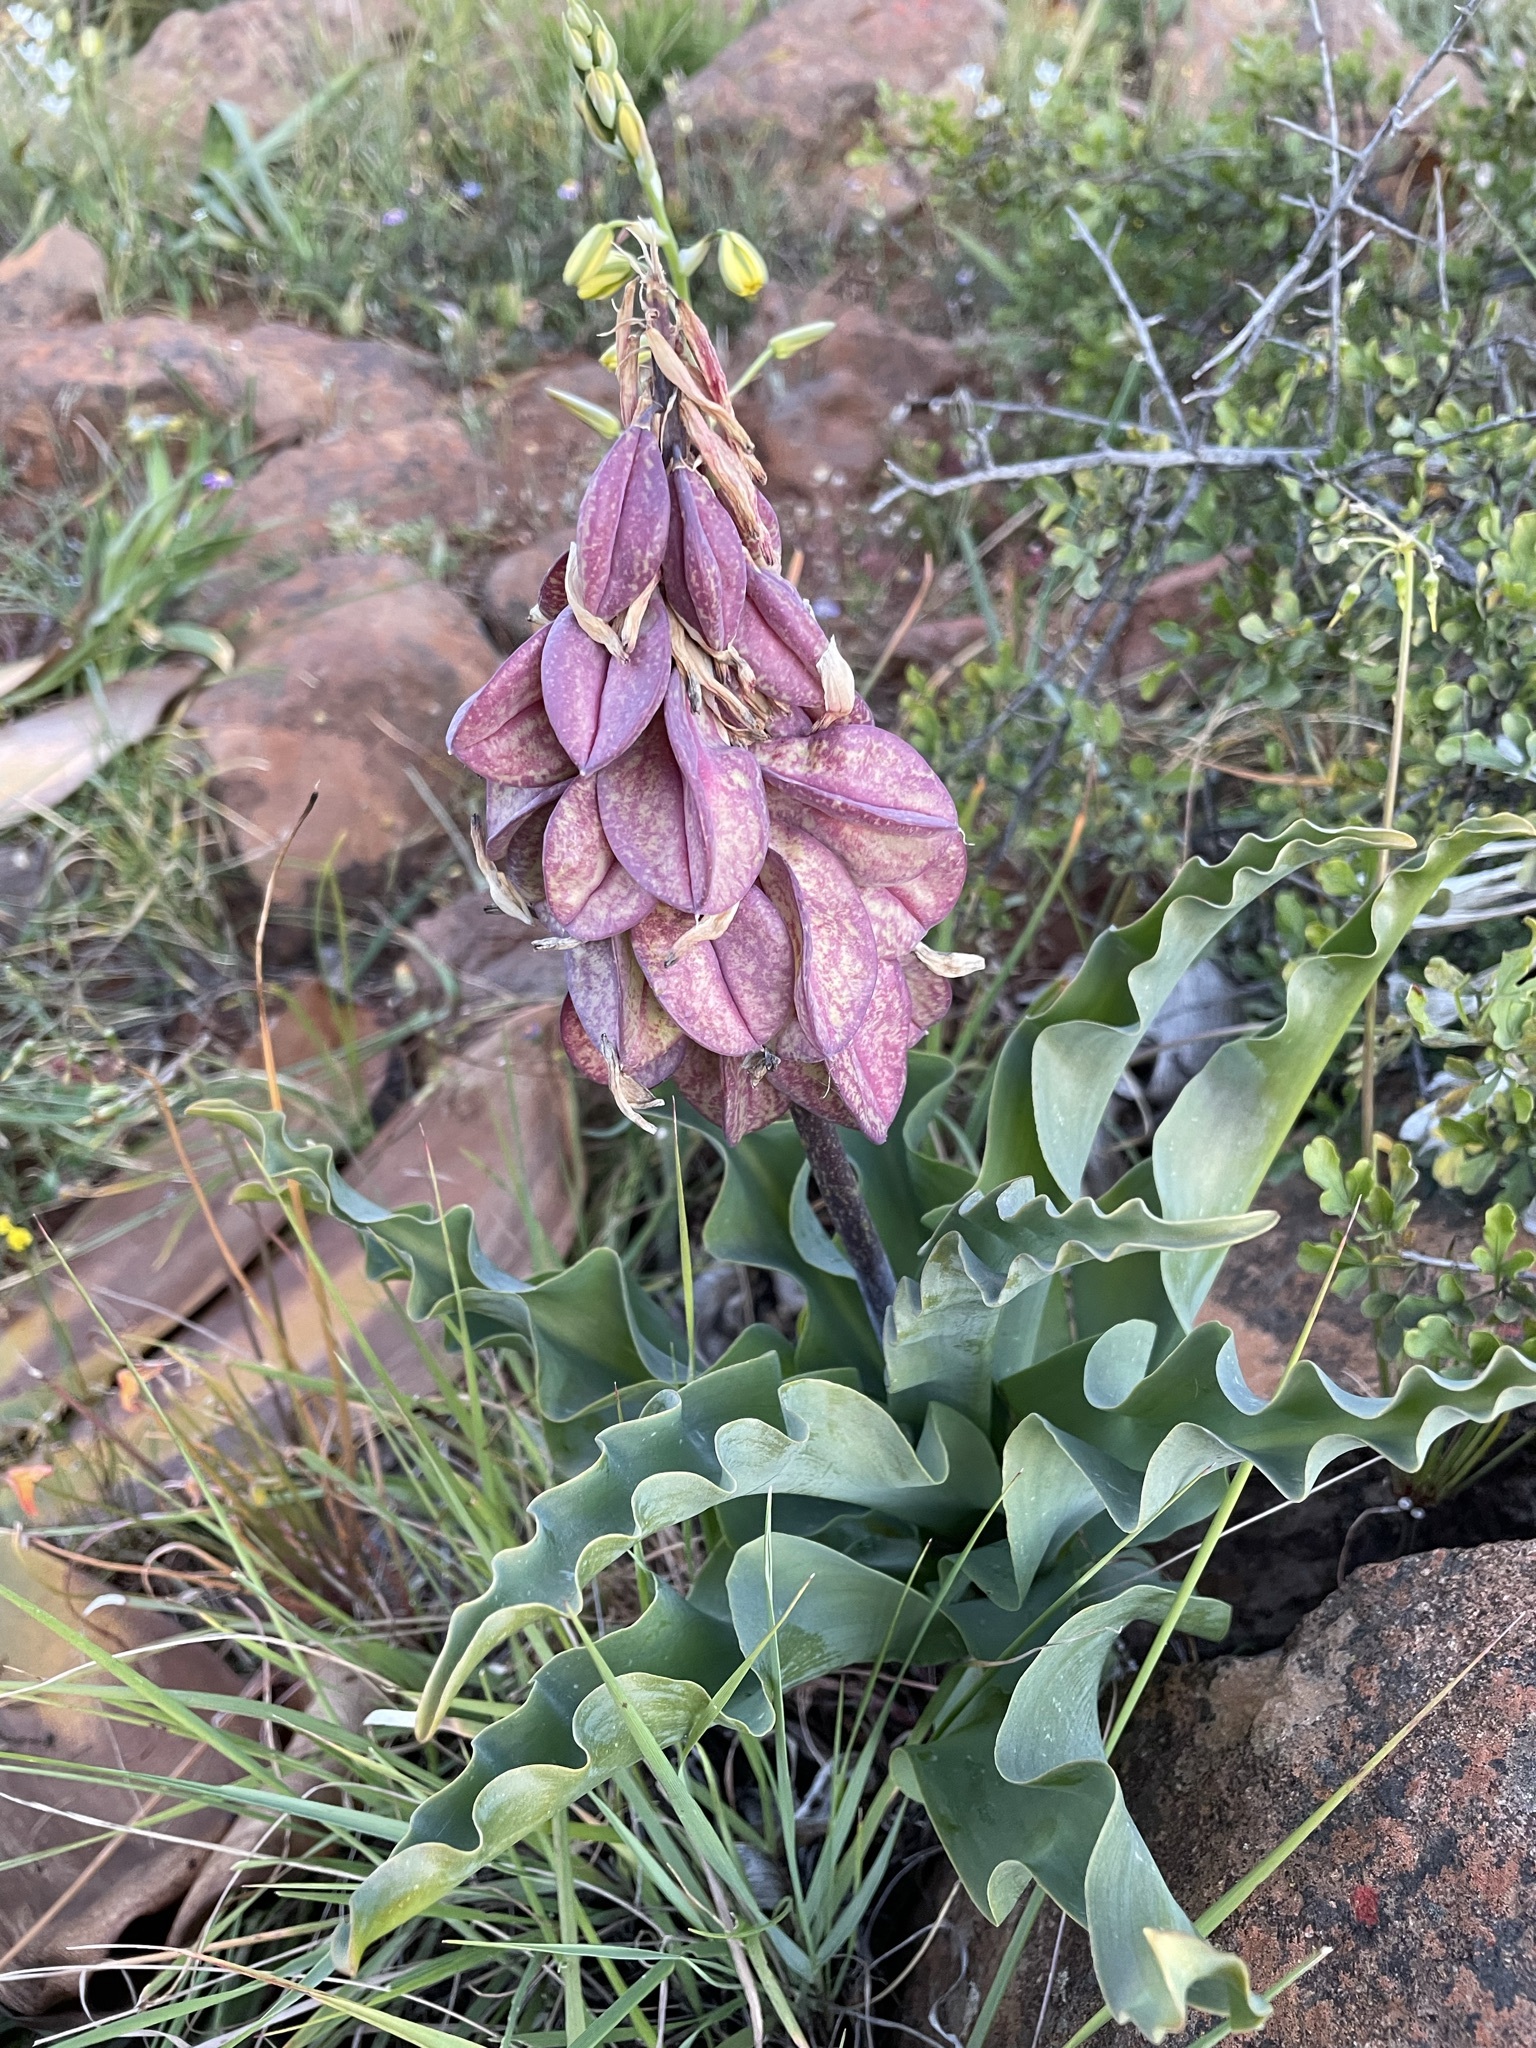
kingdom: Plantae
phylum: Tracheophyta
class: Liliopsida
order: Asparagales
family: Asparagaceae
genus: Veltheimia
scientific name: Veltheimia capensis
